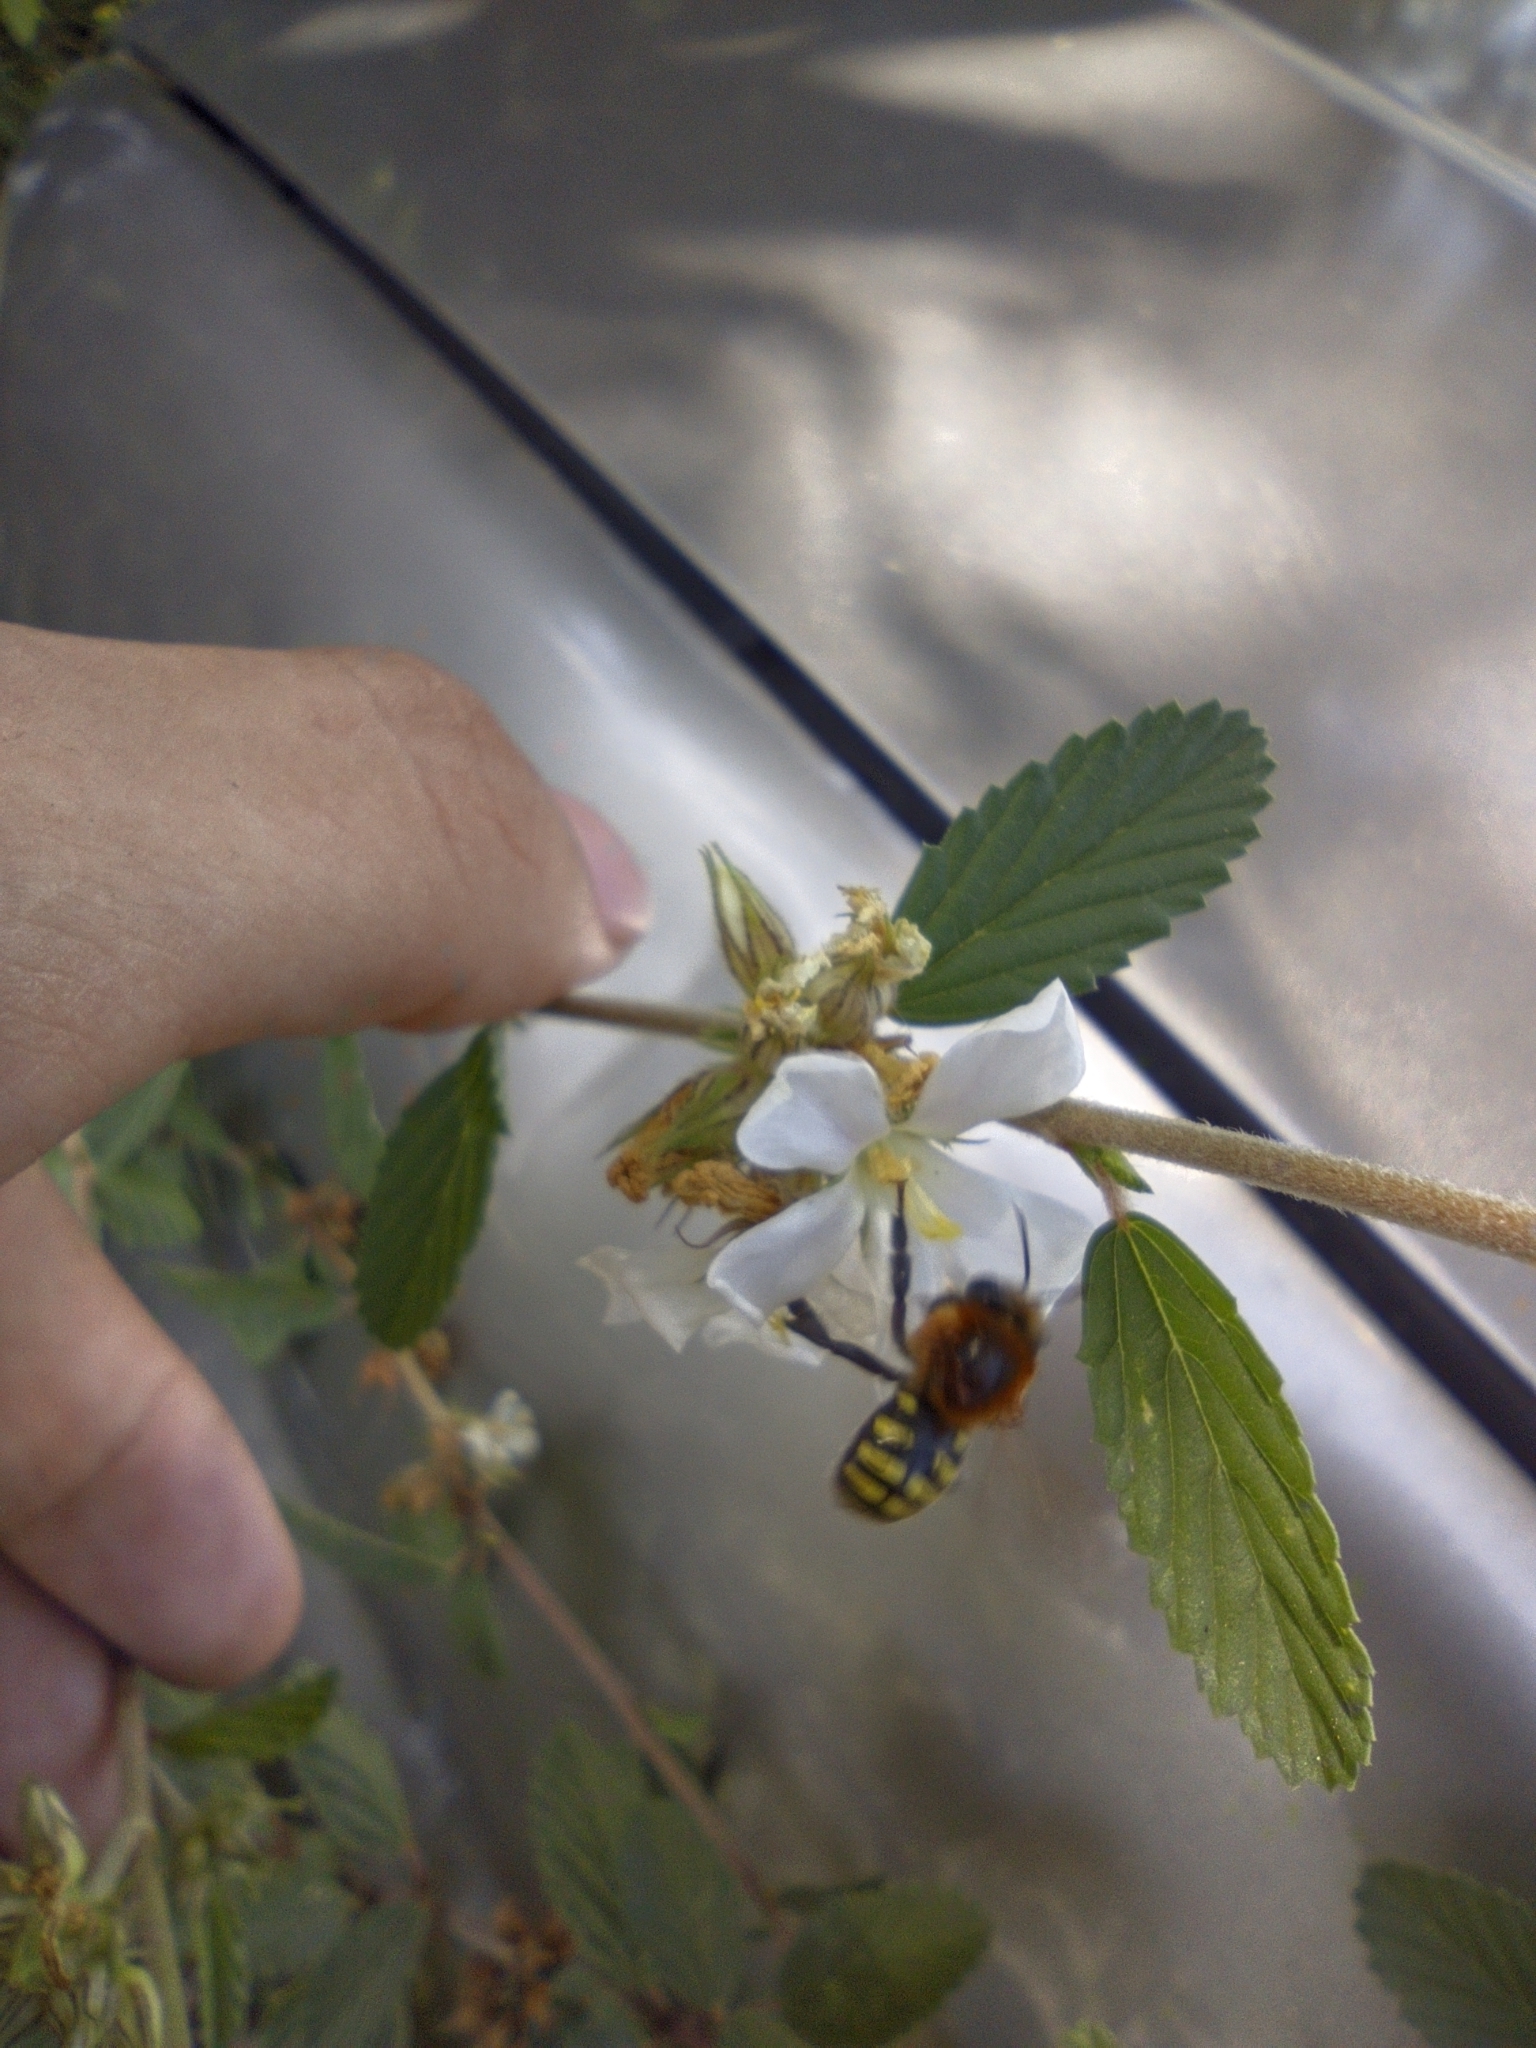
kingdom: Animalia
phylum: Arthropoda
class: Insecta
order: Hymenoptera
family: Apidae
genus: Melipona
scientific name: Melipona favosa
